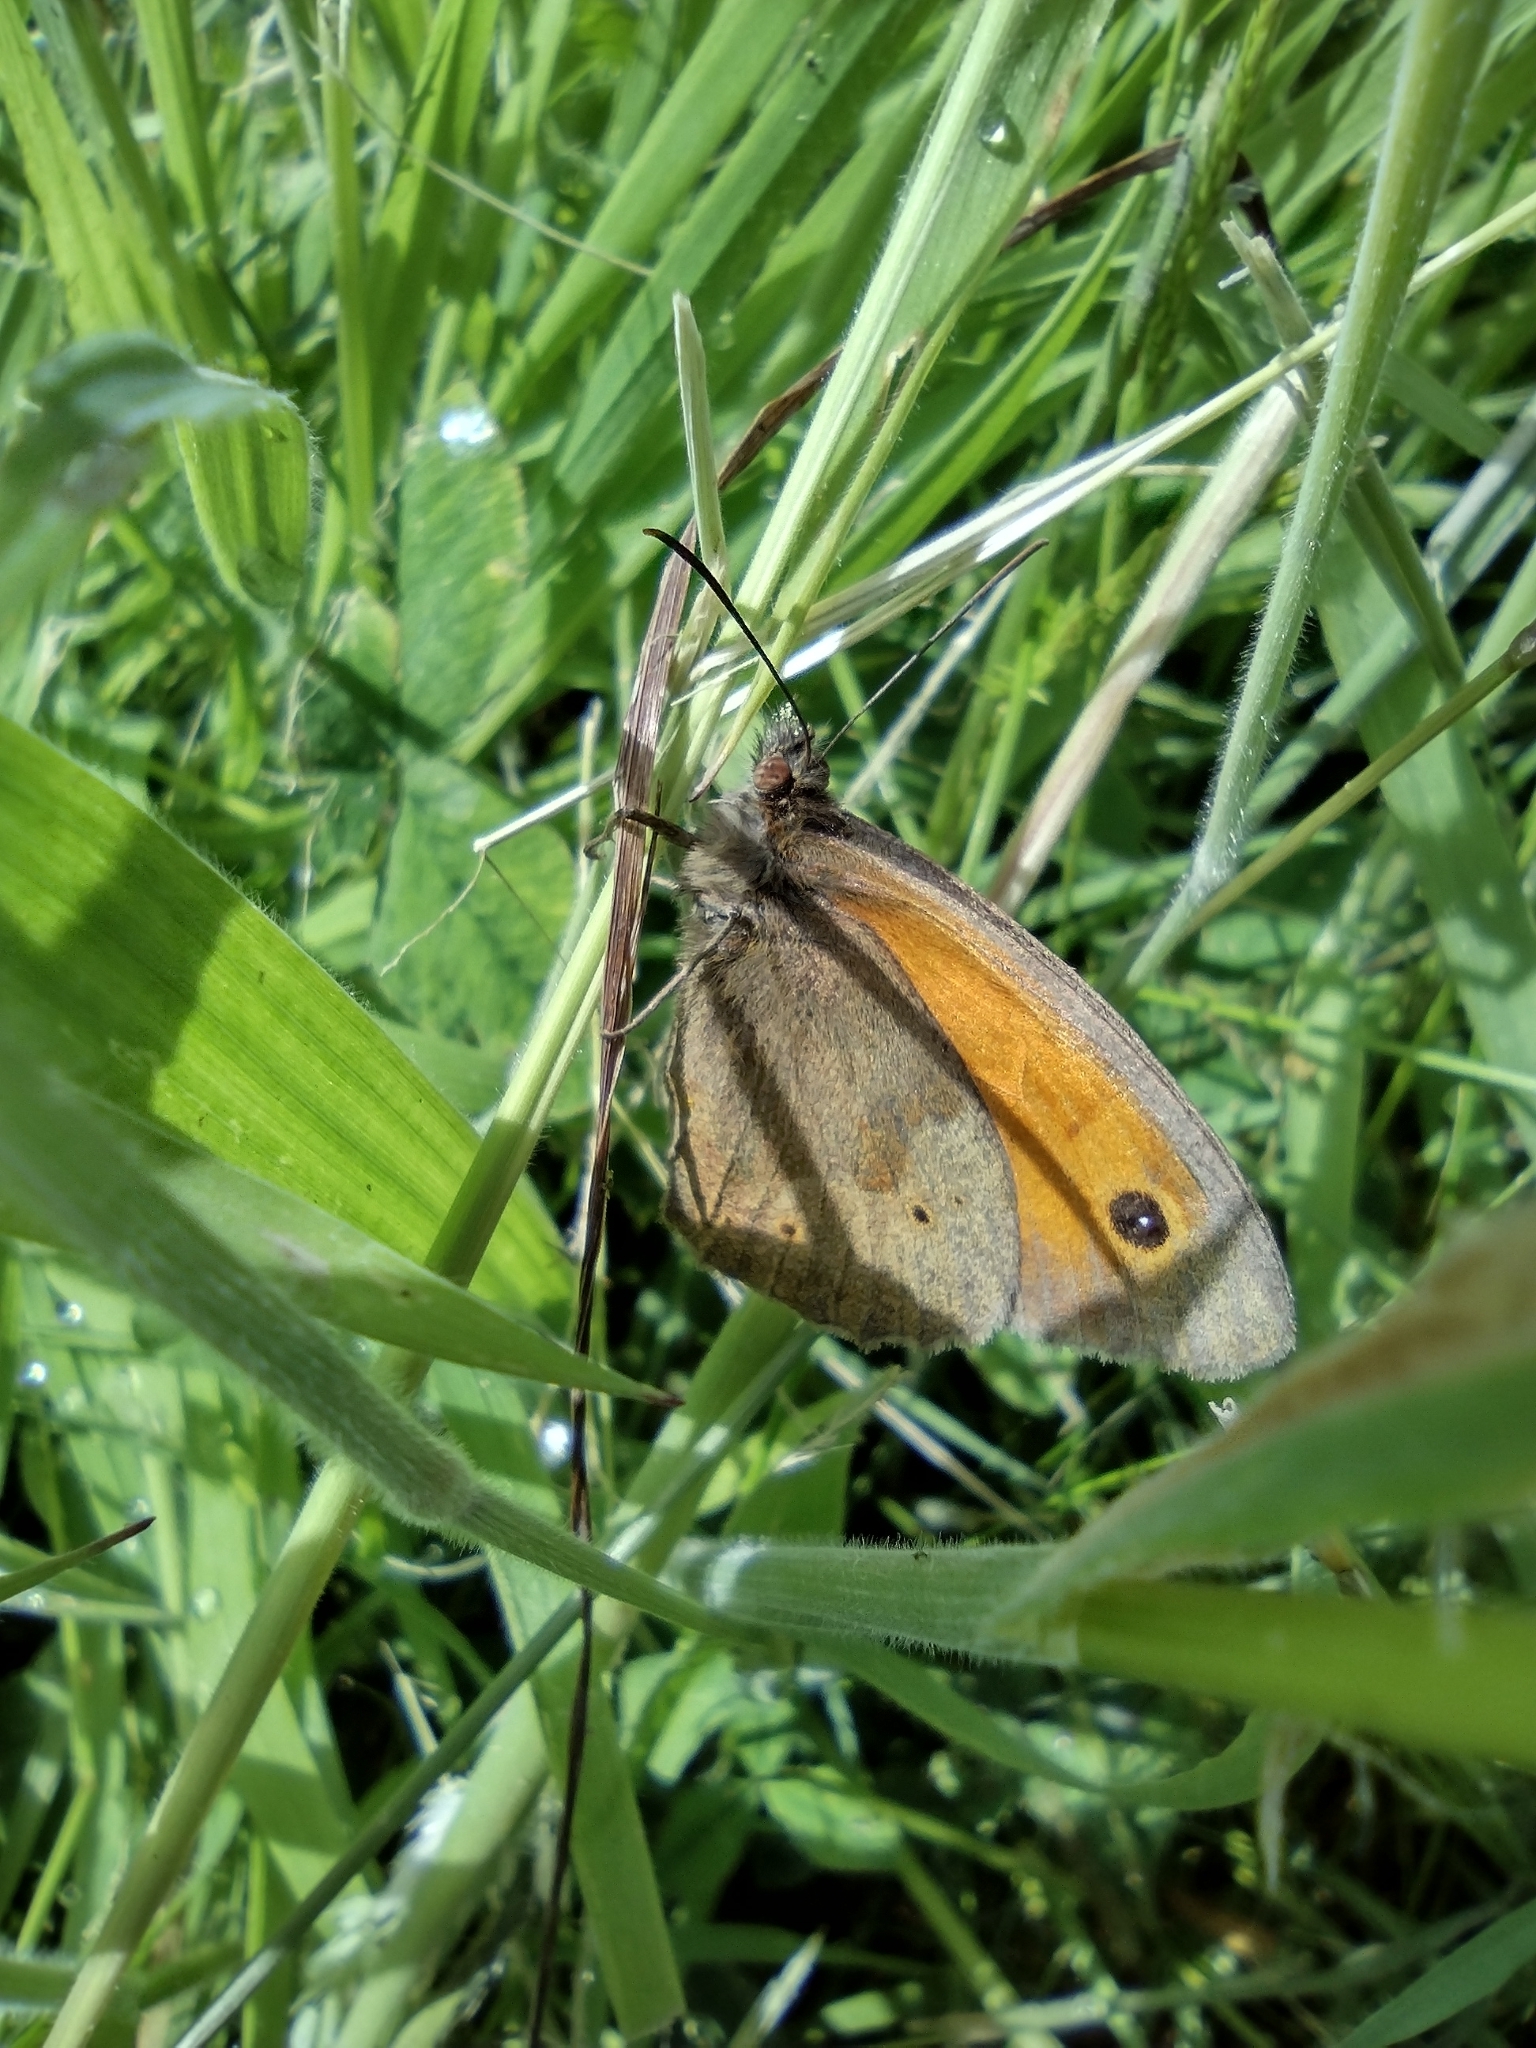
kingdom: Animalia
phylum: Arthropoda
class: Insecta
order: Lepidoptera
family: Nymphalidae
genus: Maniola
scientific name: Maniola jurtina
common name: Meadow brown
